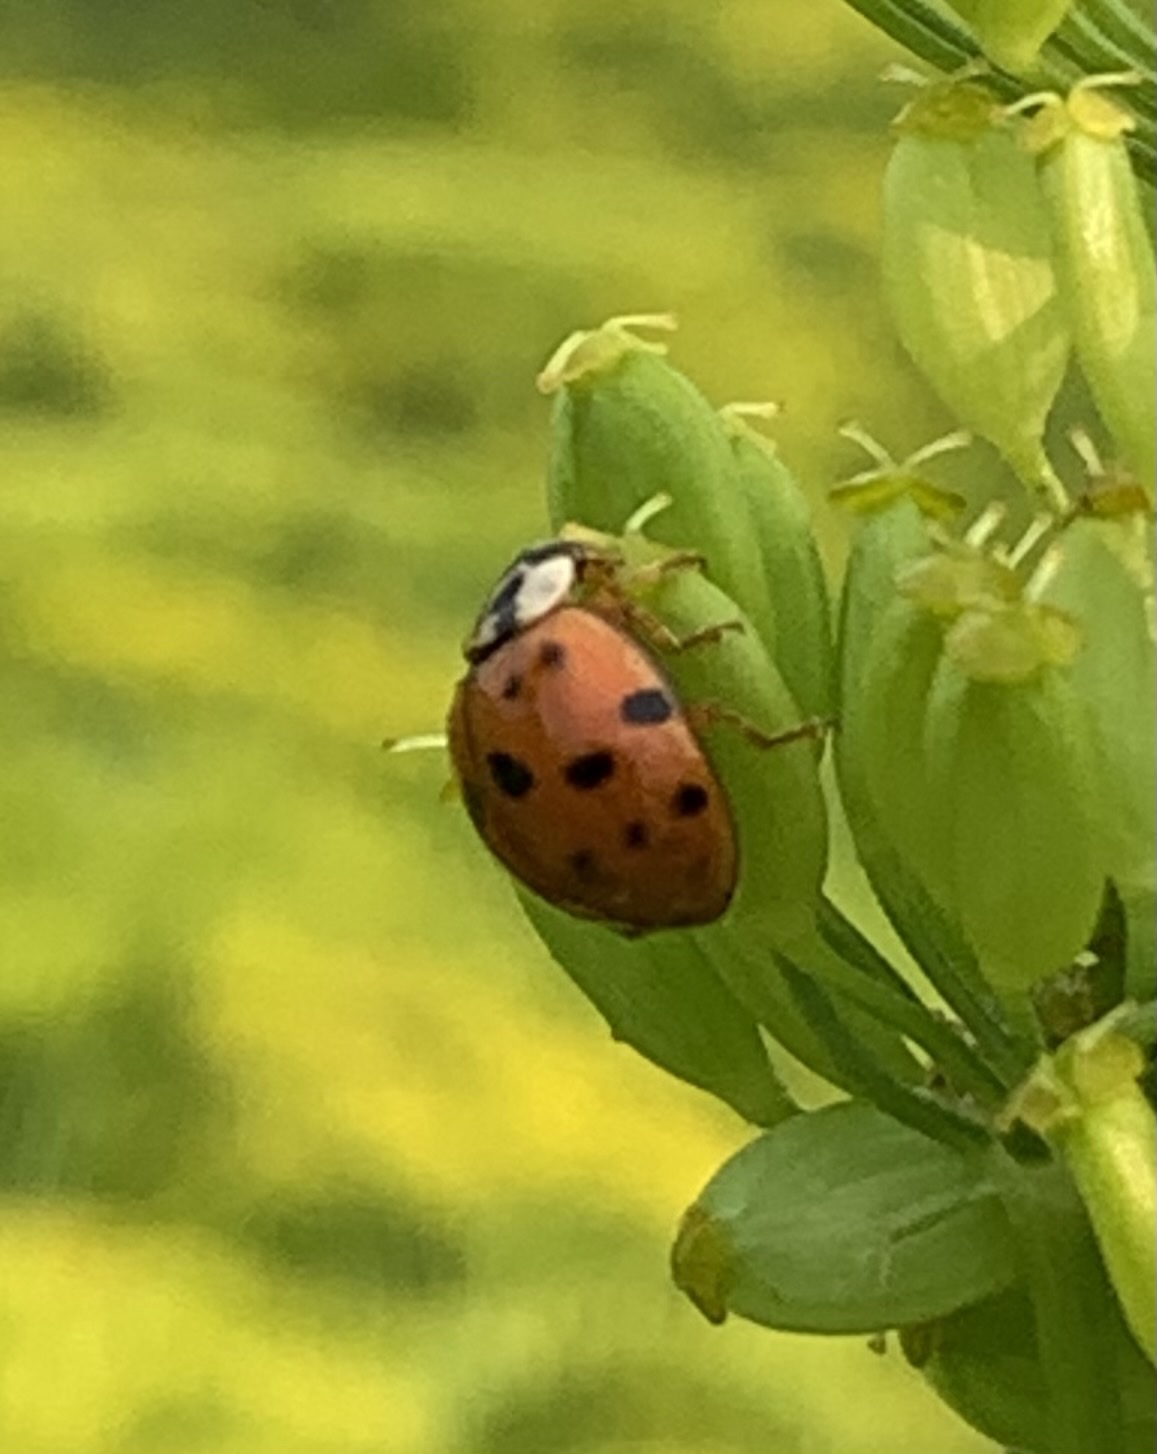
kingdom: Animalia
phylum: Arthropoda
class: Insecta
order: Coleoptera
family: Coccinellidae
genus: Harmonia
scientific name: Harmonia axyridis
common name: Harlequin ladybird
